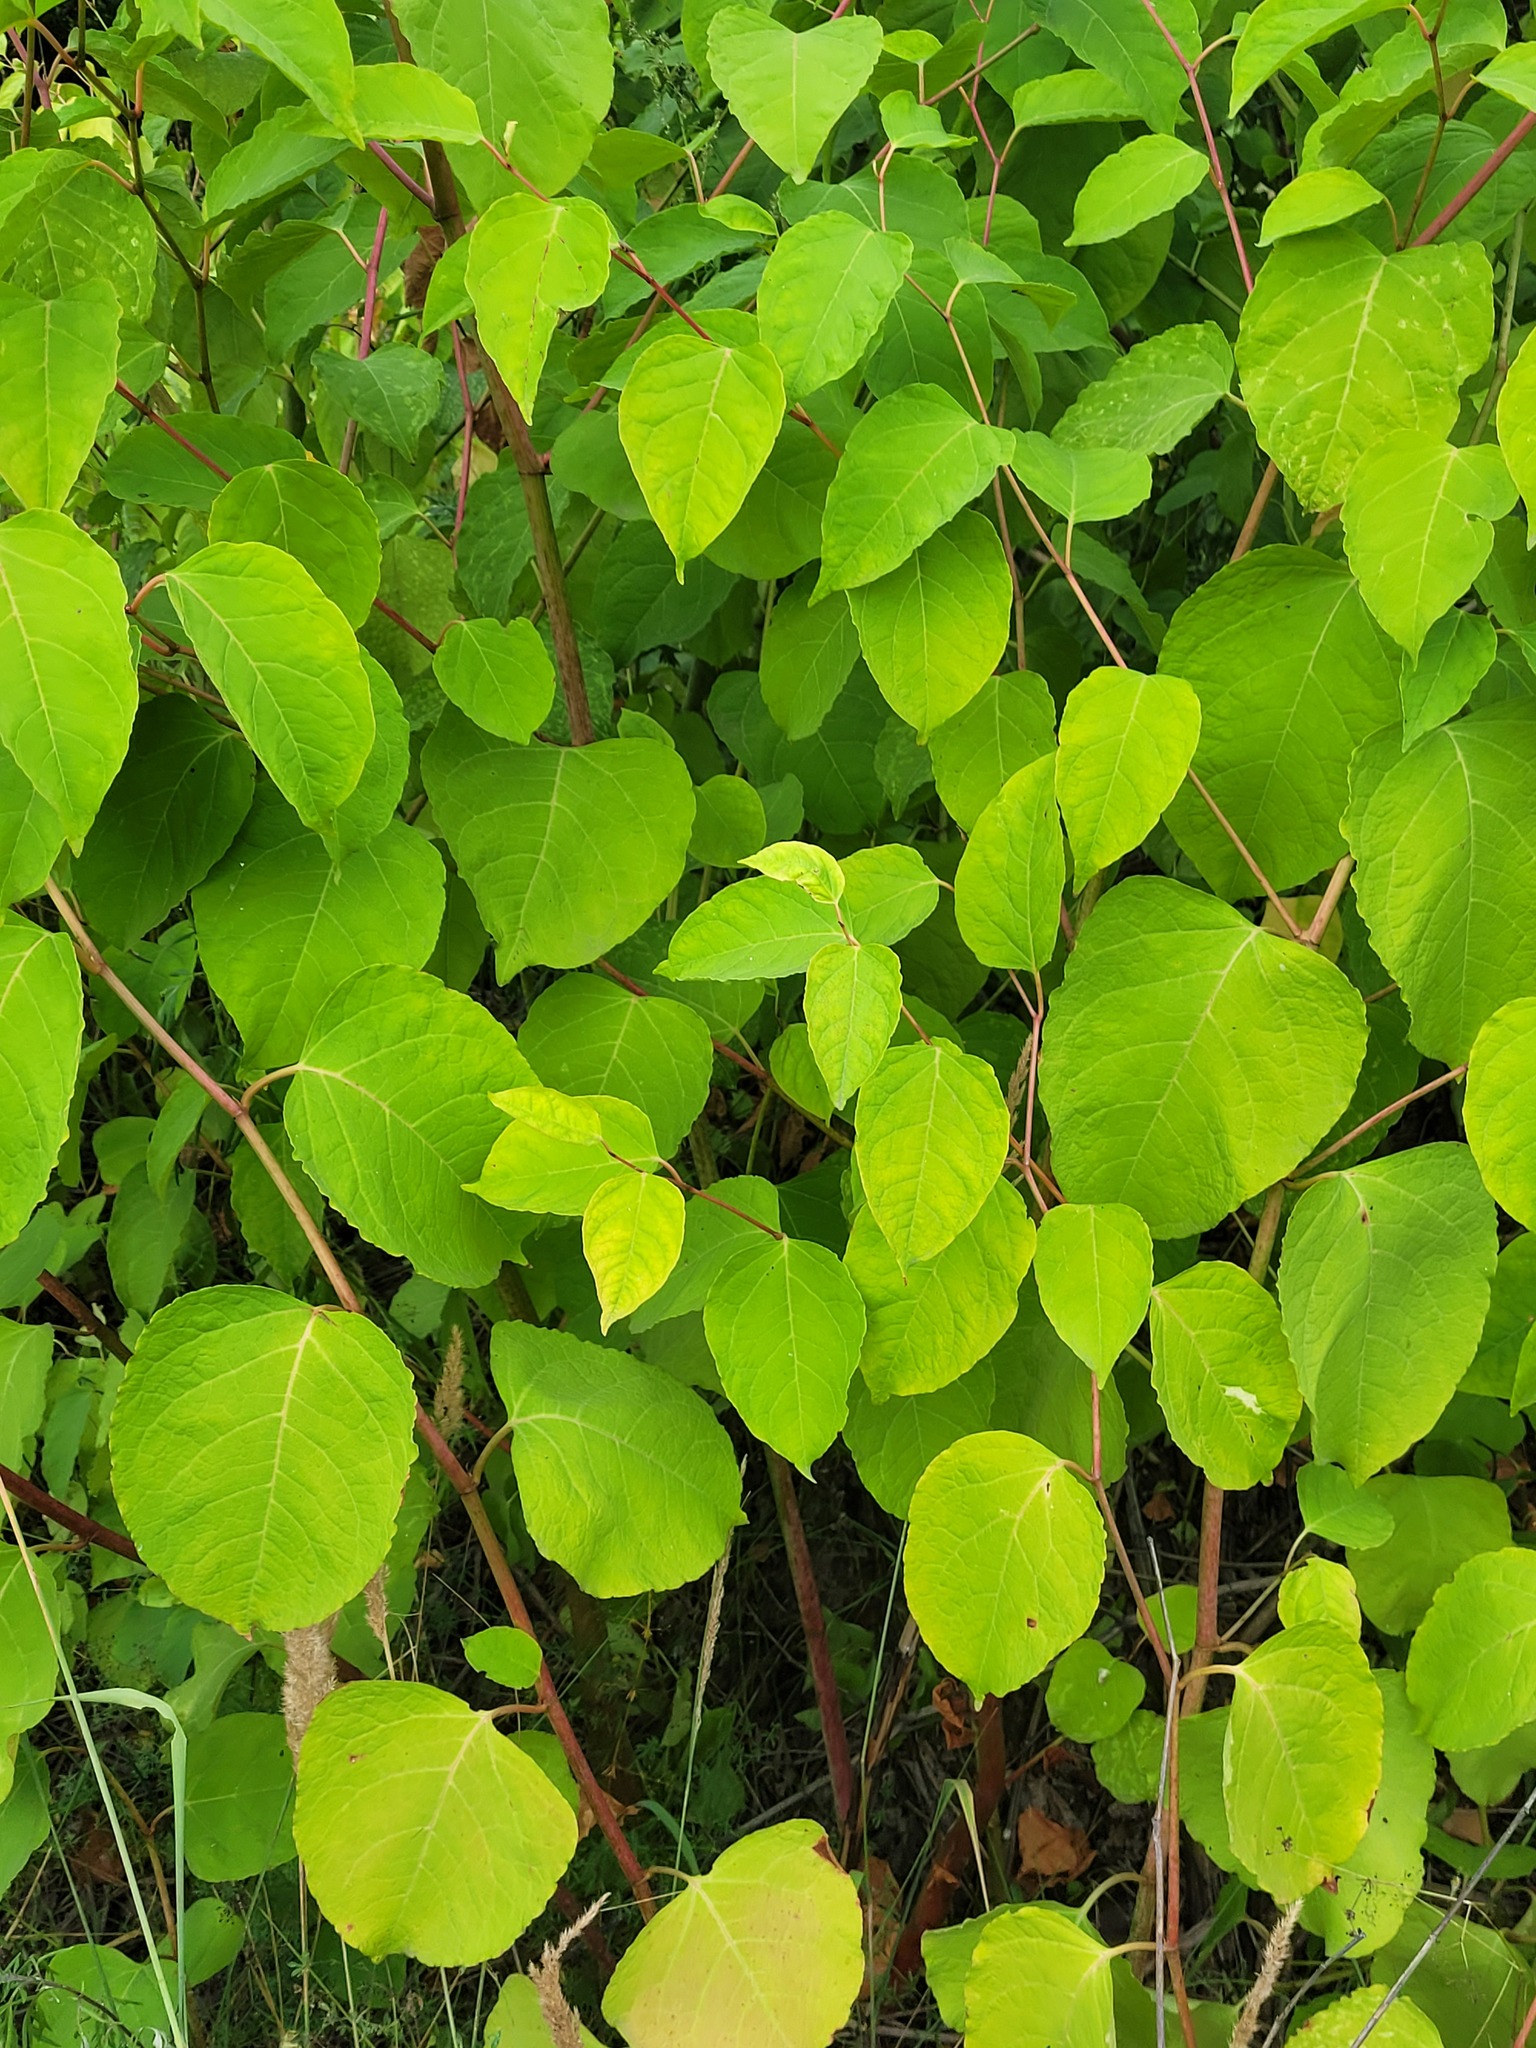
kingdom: Plantae
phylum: Tracheophyta
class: Magnoliopsida
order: Caryophyllales
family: Polygonaceae
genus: Reynoutria
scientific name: Reynoutria bohemica
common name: Bohemian knotweed
